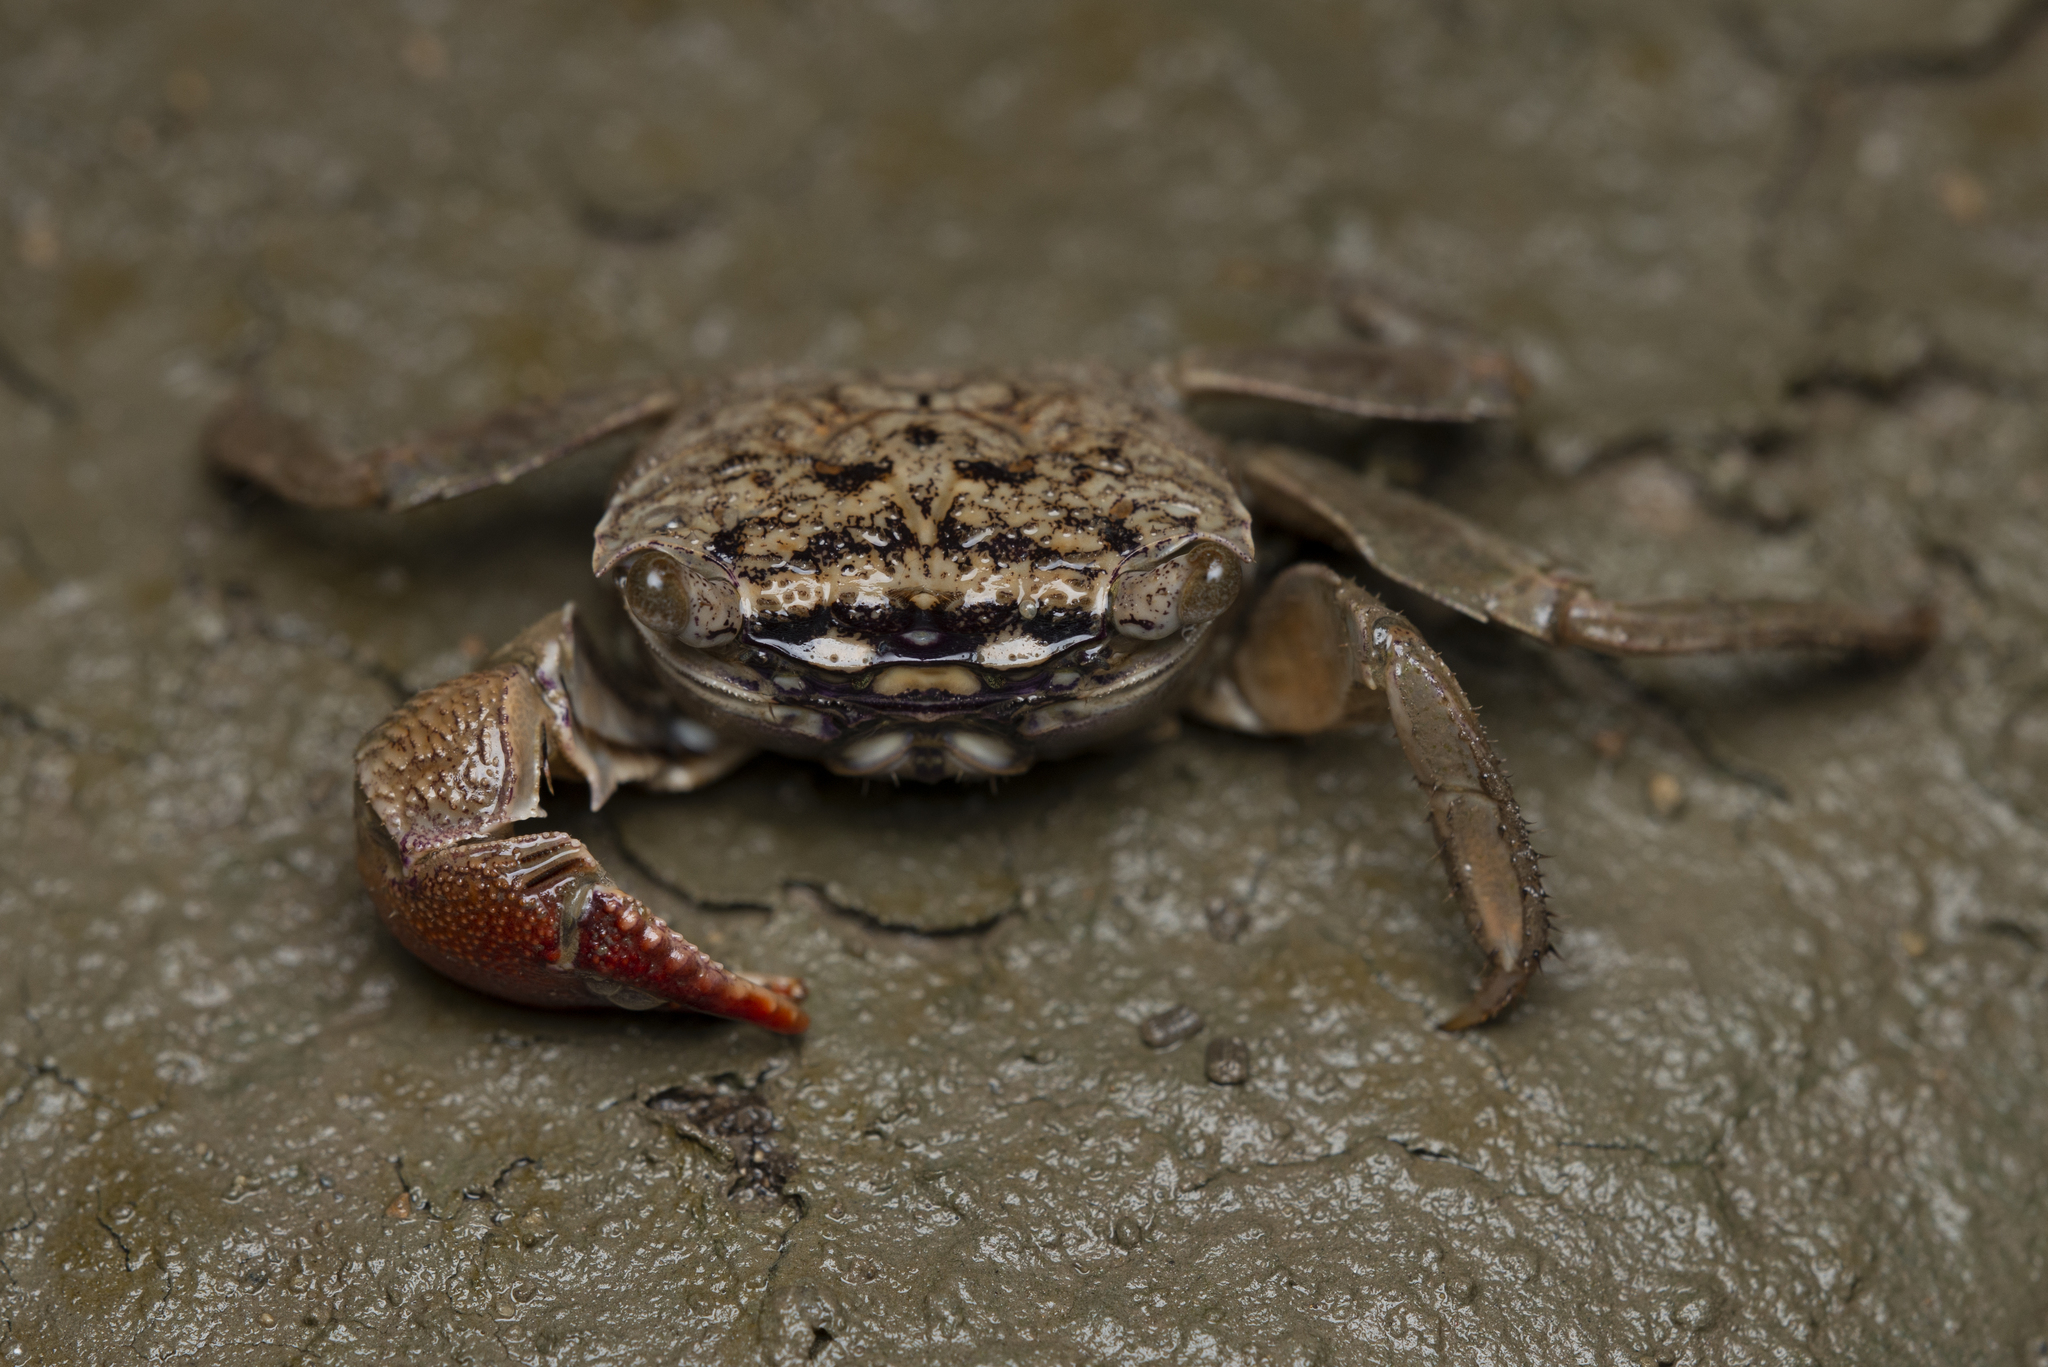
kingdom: Animalia
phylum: Arthropoda
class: Malacostraca
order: Decapoda
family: Sesarmidae
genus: Parasesarma
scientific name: Parasesarma affine
